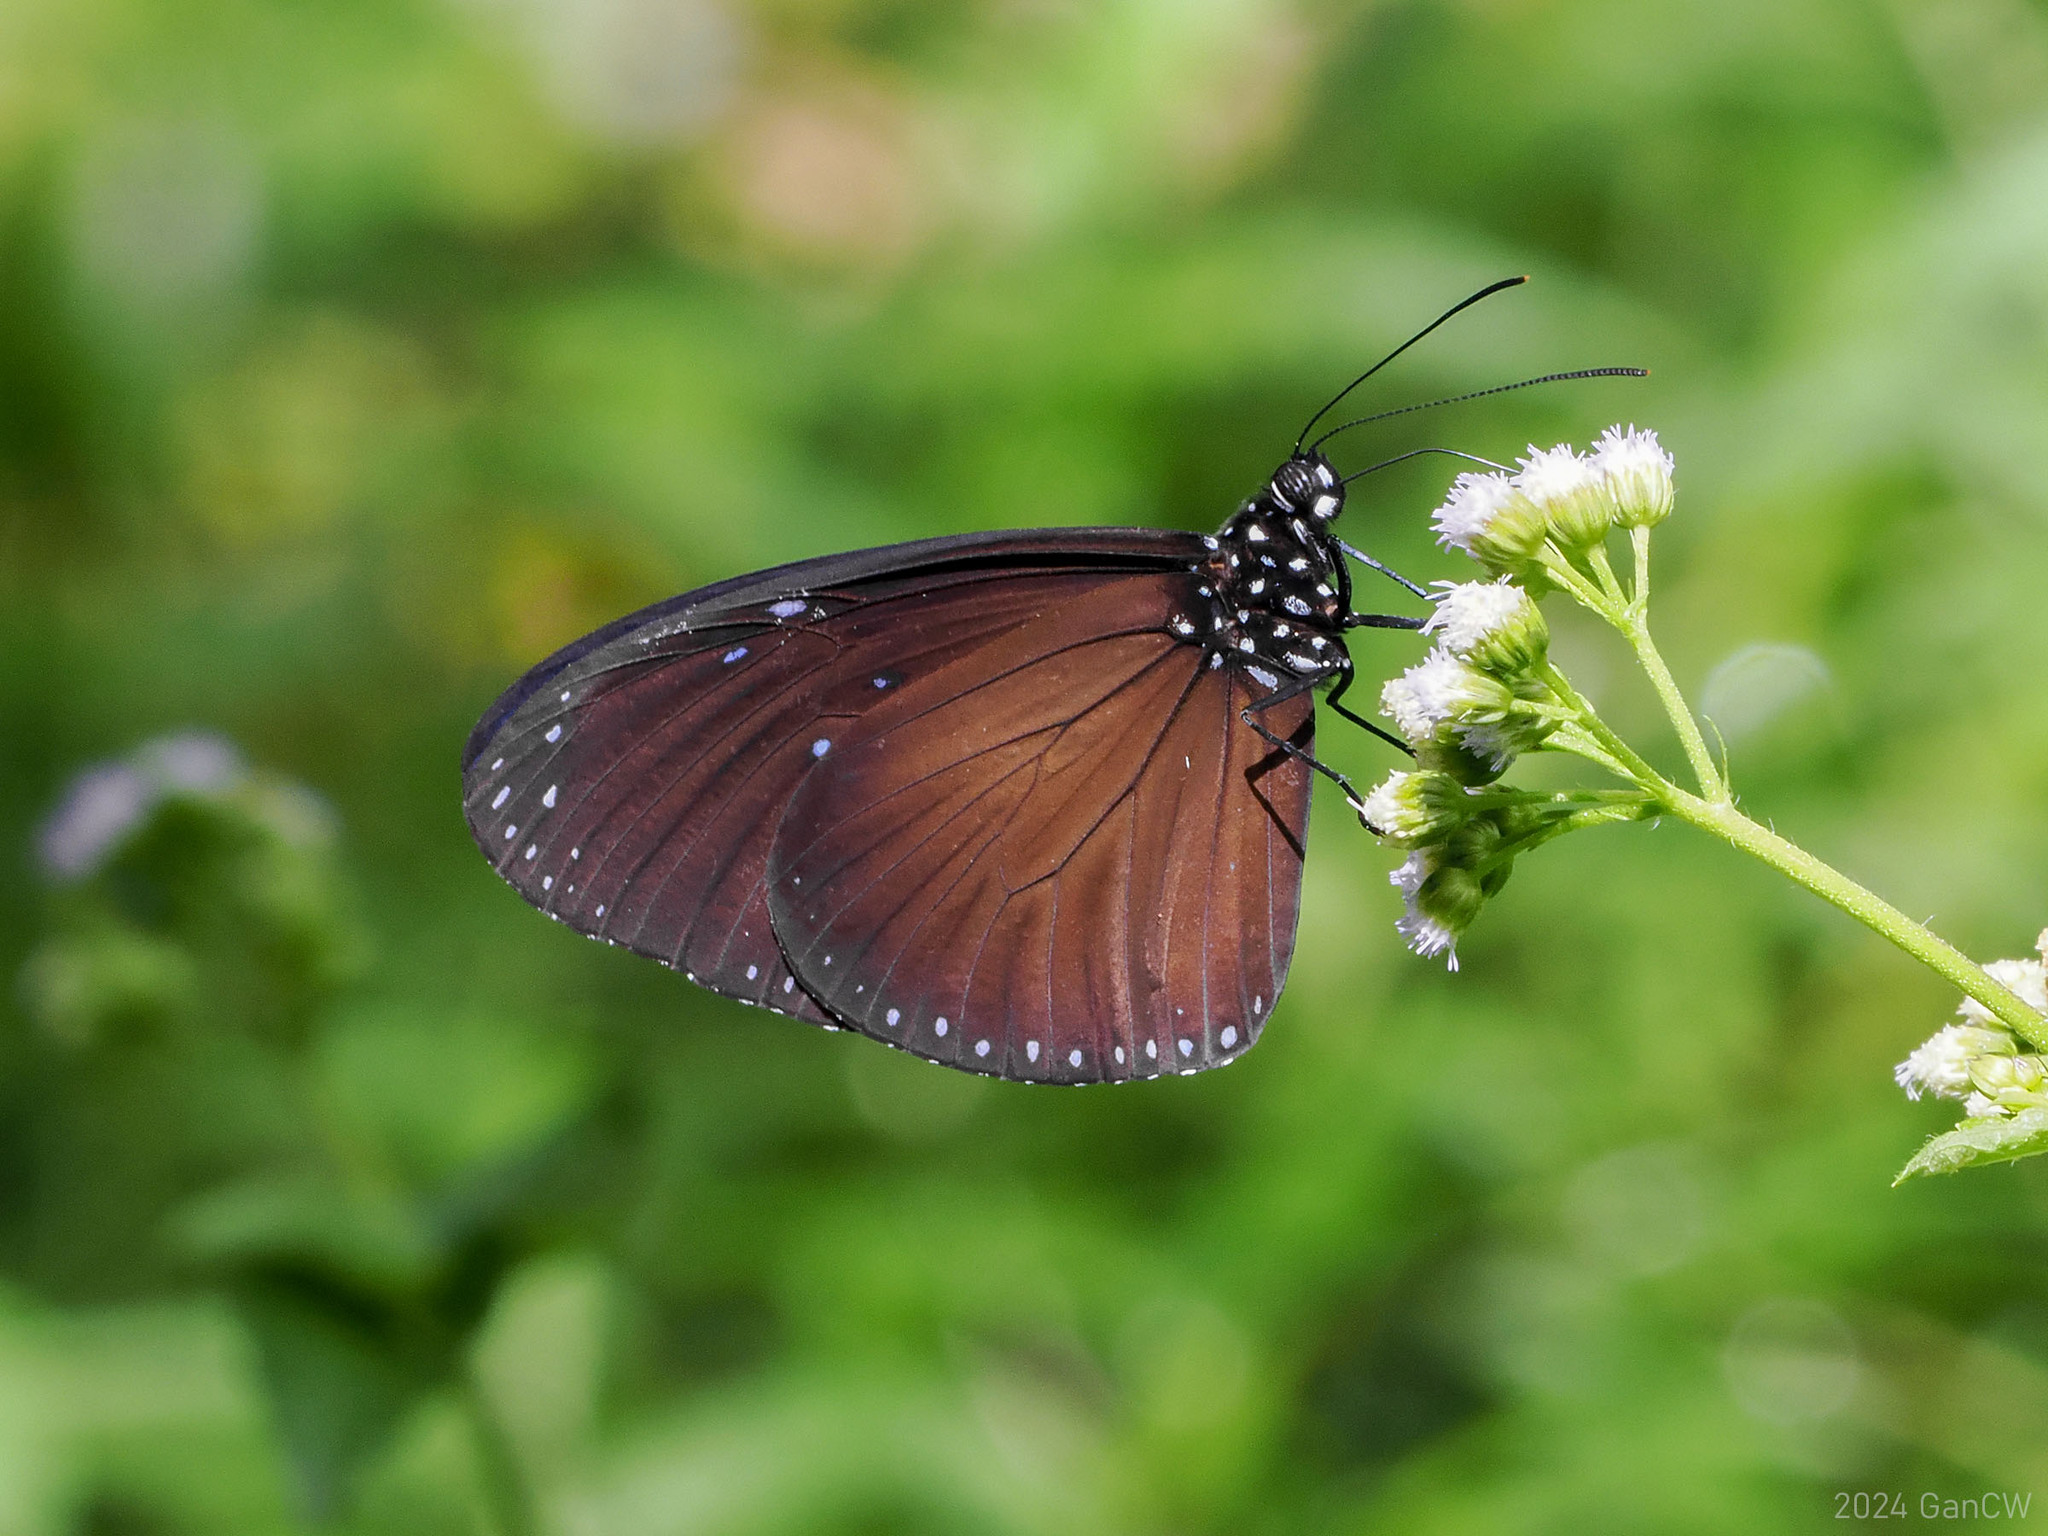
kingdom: Animalia
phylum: Arthropoda
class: Insecta
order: Lepidoptera
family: Nymphalidae
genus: Euploea
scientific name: Euploea mulciber
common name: Striped blue crow butterfly
